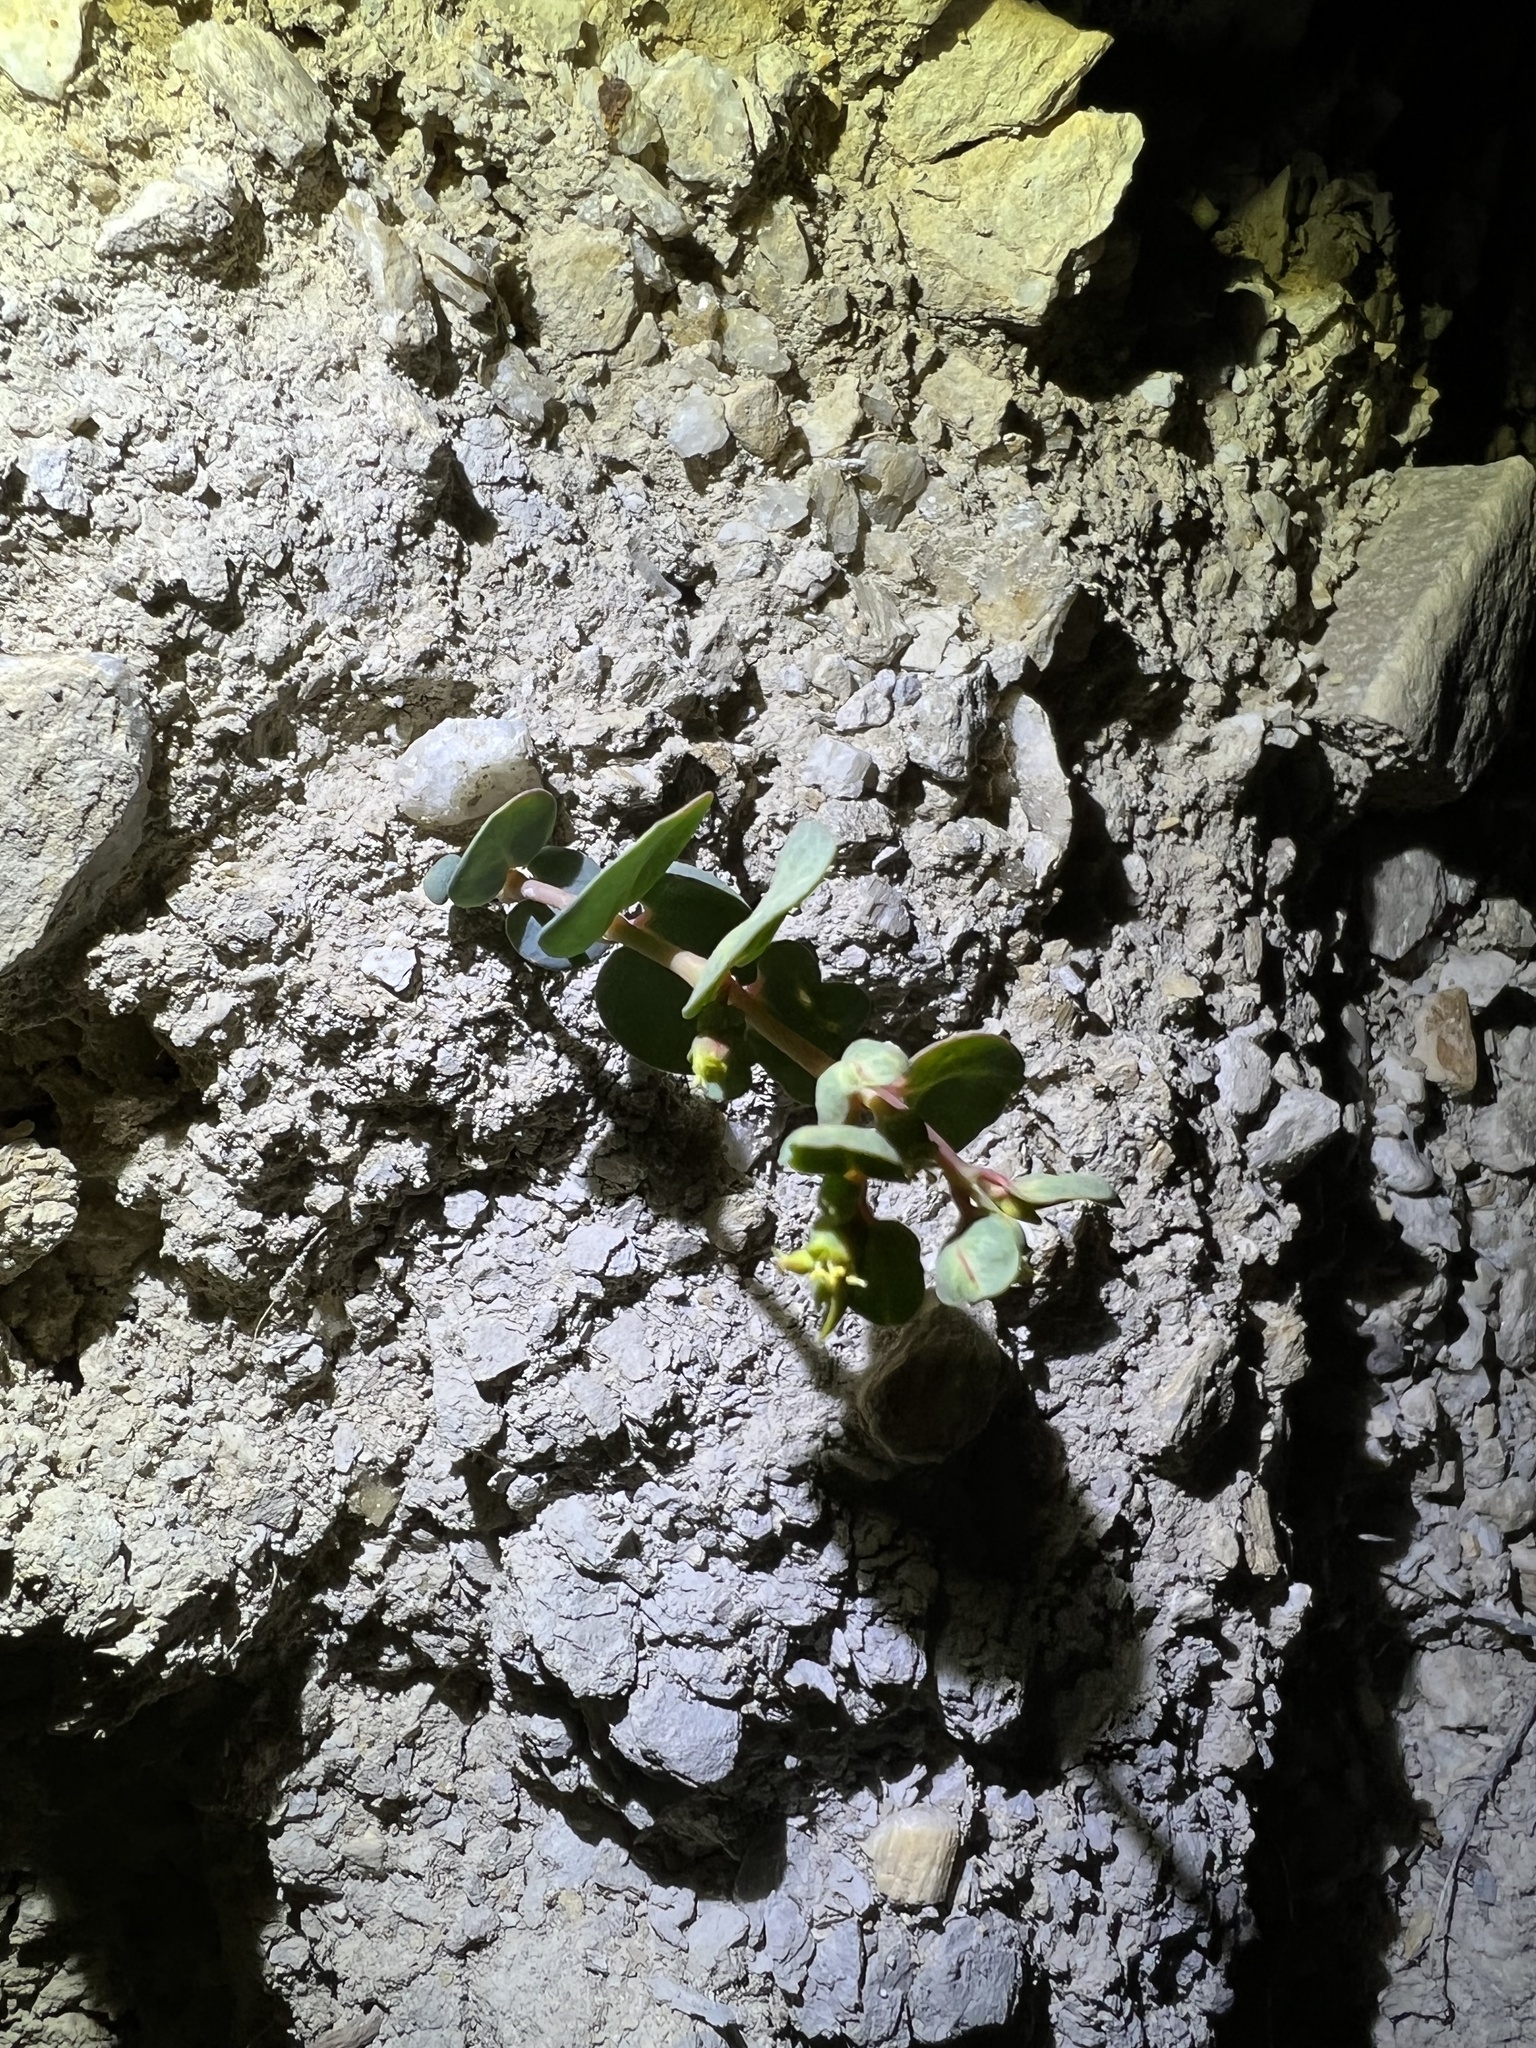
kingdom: Plantae
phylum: Tracheophyta
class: Magnoliopsida
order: Malpighiales
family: Euphorbiaceae
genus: Euphorbia
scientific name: Euphorbia perennans
